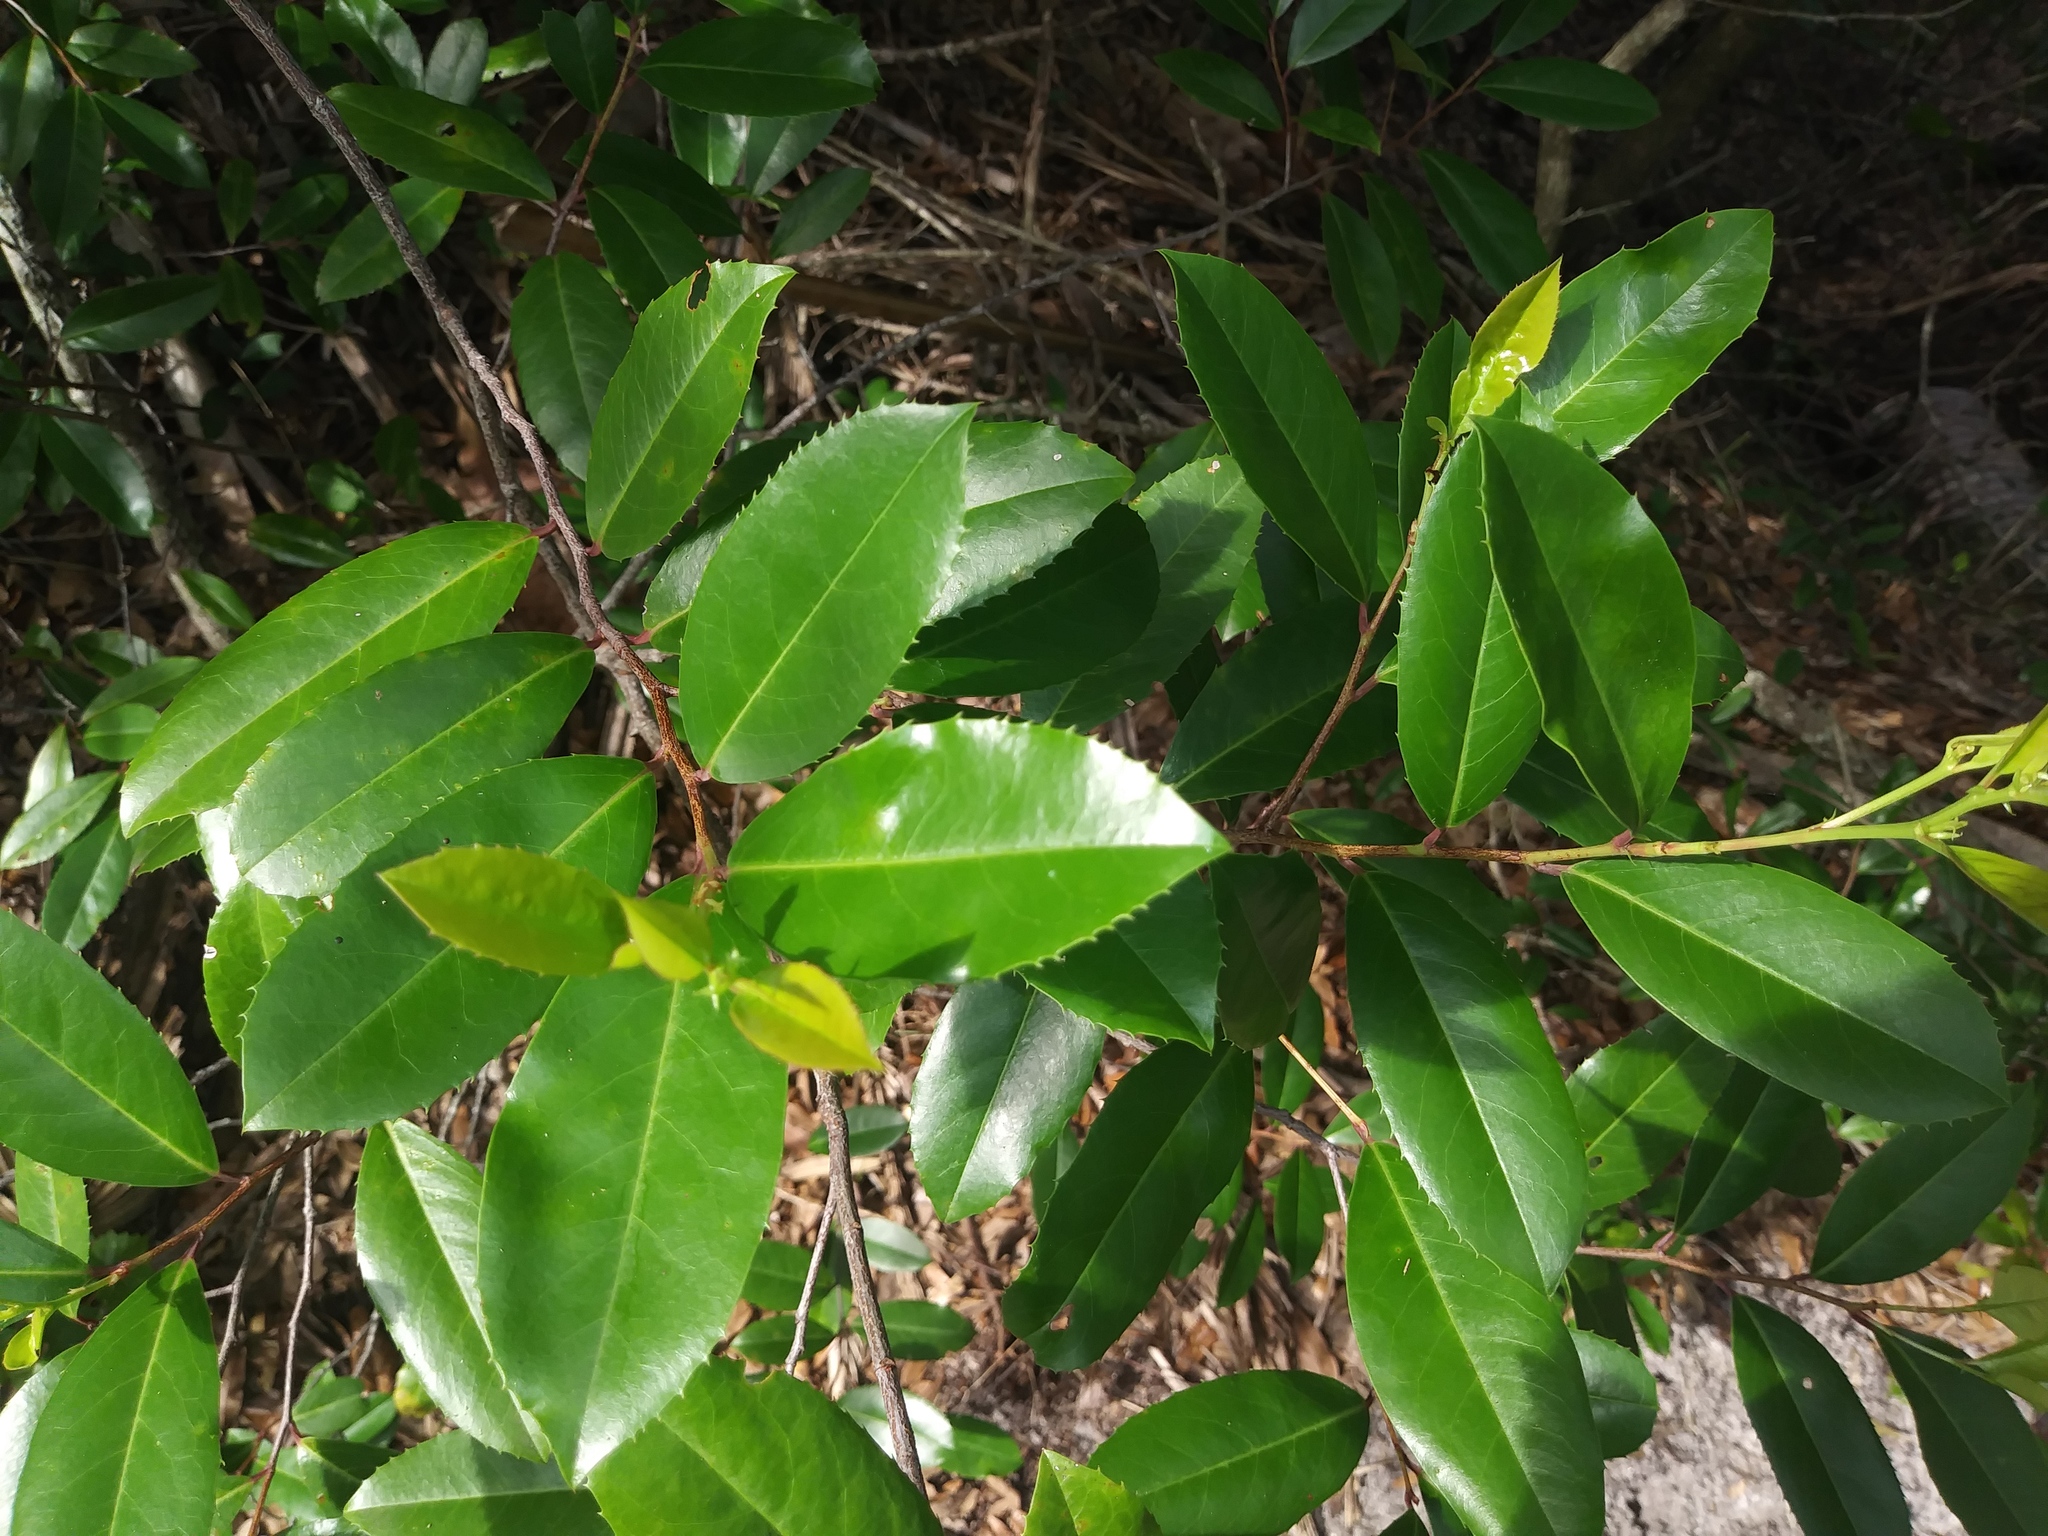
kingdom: Plantae
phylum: Tracheophyta
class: Magnoliopsida
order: Rosales
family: Rosaceae
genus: Prunus
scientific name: Prunus caroliniana
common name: Carolina laurel cherry
